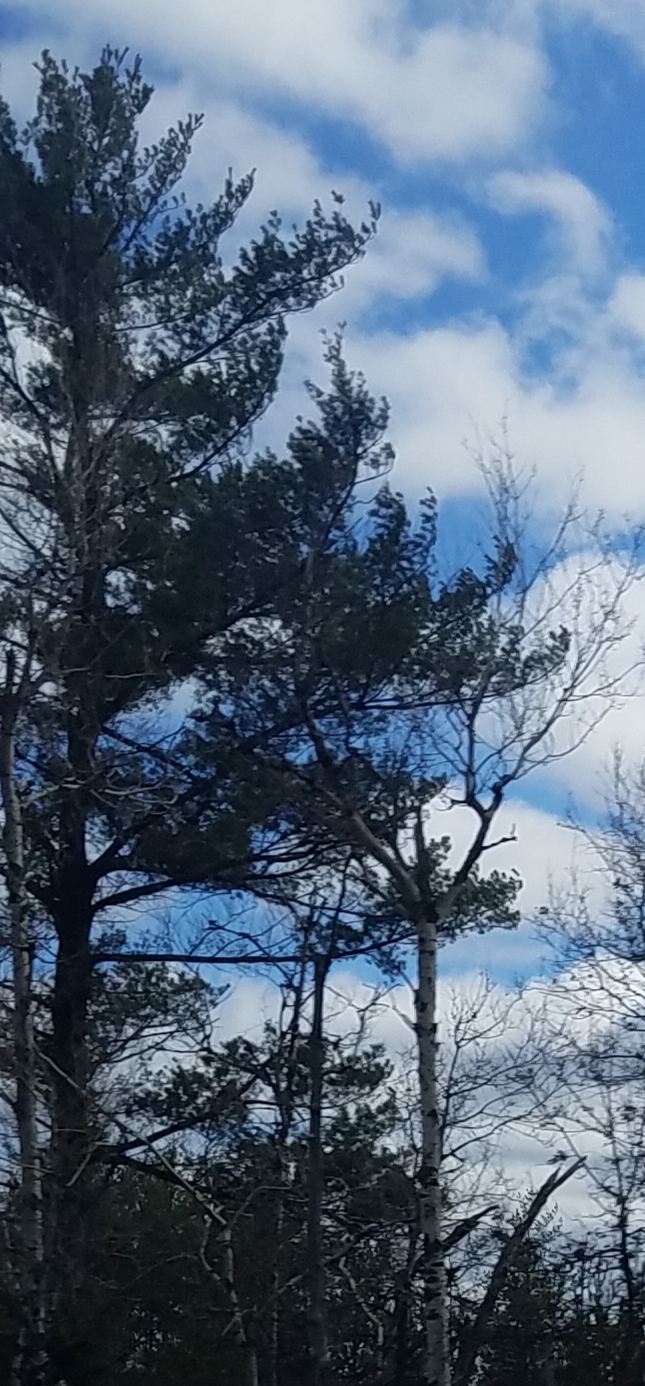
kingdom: Plantae
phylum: Tracheophyta
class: Pinopsida
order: Pinales
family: Pinaceae
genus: Pinus
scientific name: Pinus strobus
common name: Weymouth pine
